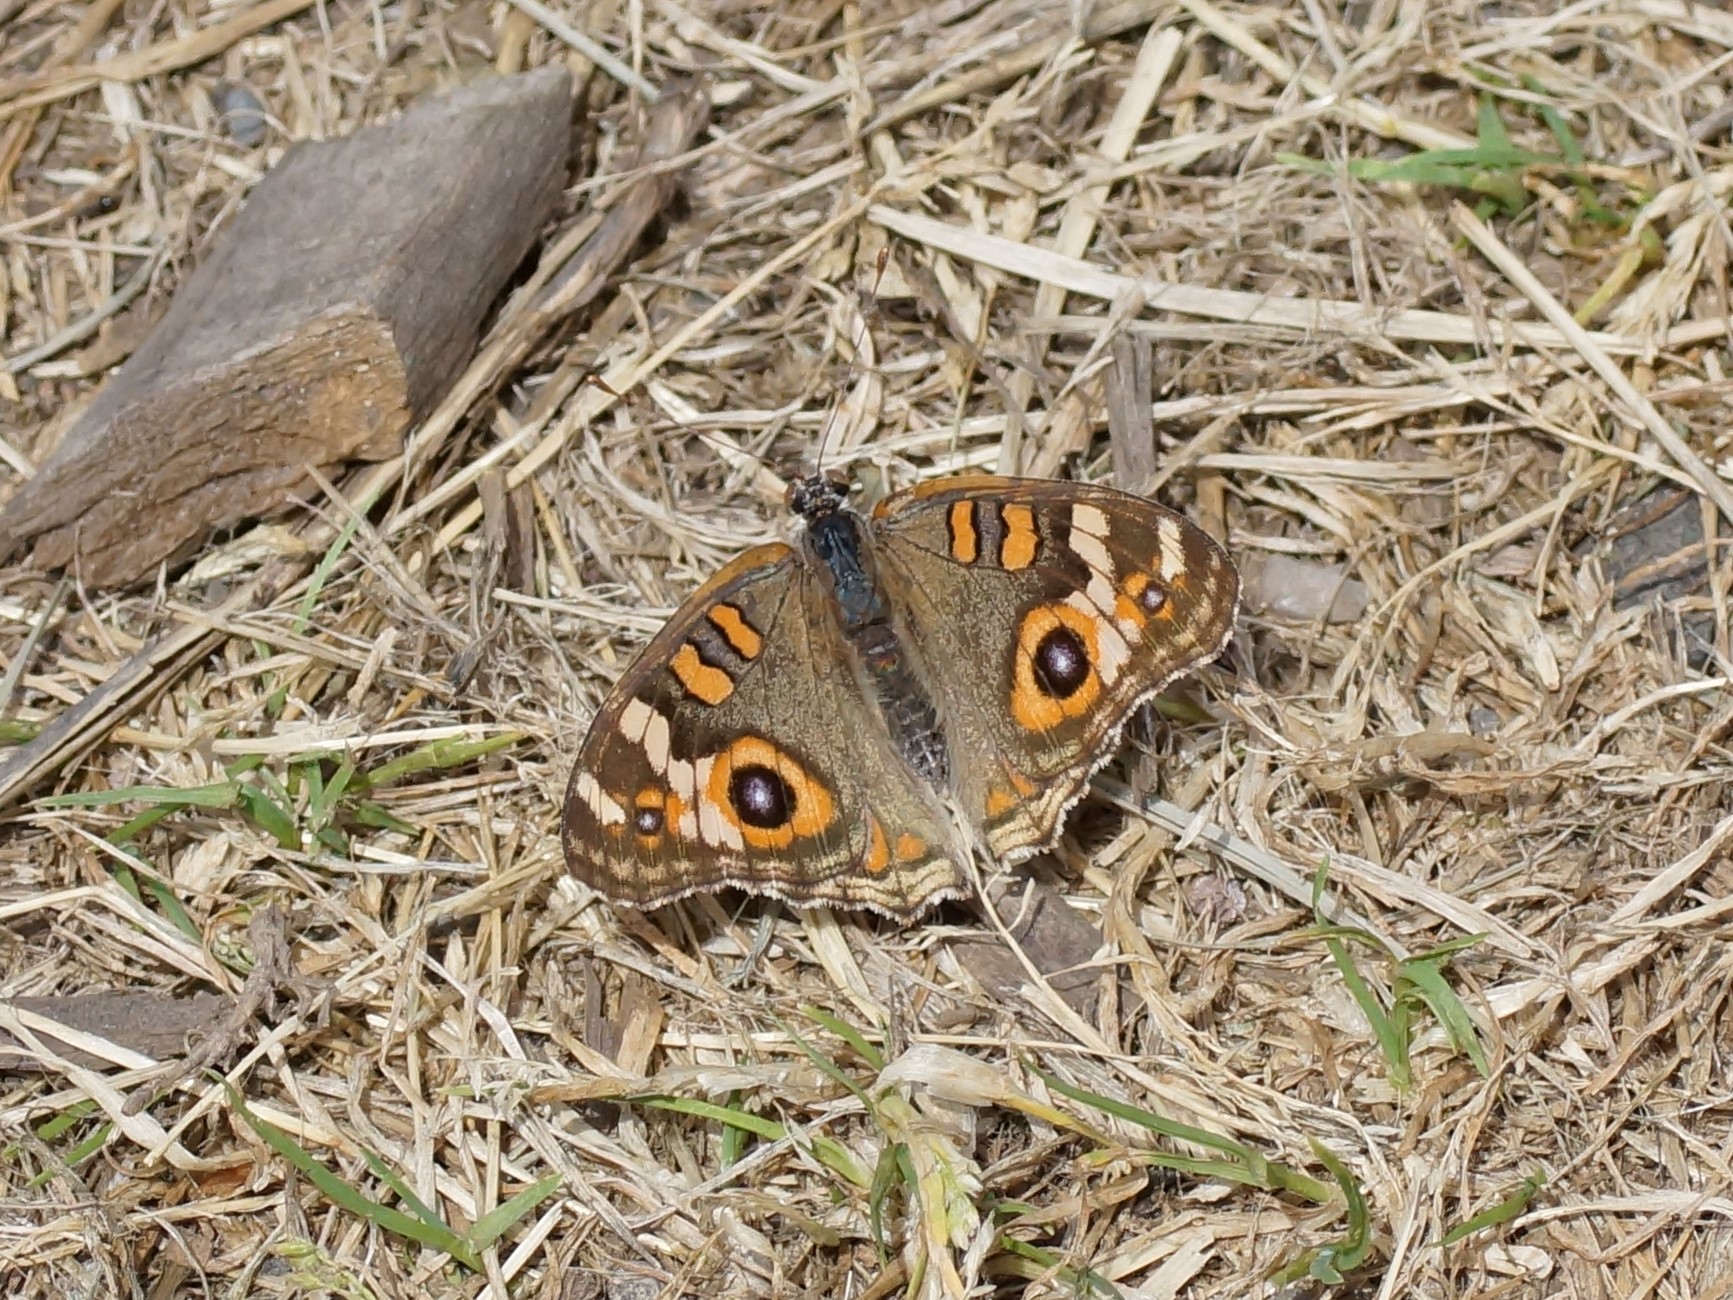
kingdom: Animalia
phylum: Arthropoda
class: Insecta
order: Lepidoptera
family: Nymphalidae
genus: Junonia
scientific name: Junonia villida
